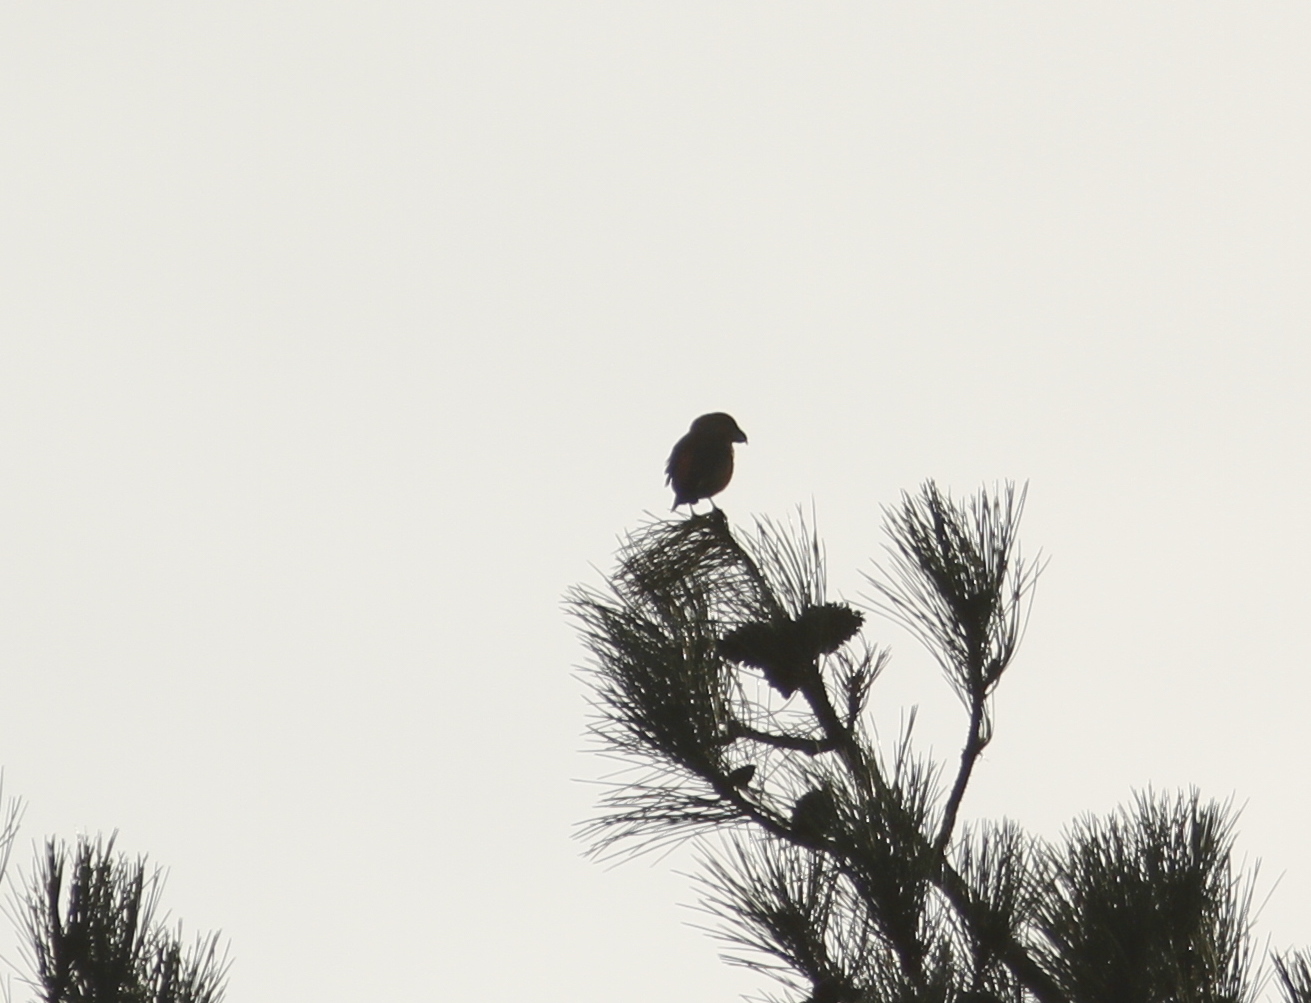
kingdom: Animalia
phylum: Chordata
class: Aves
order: Passeriformes
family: Fringillidae
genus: Loxia
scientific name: Loxia pytyopsittacus
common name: Parrot crossbill
